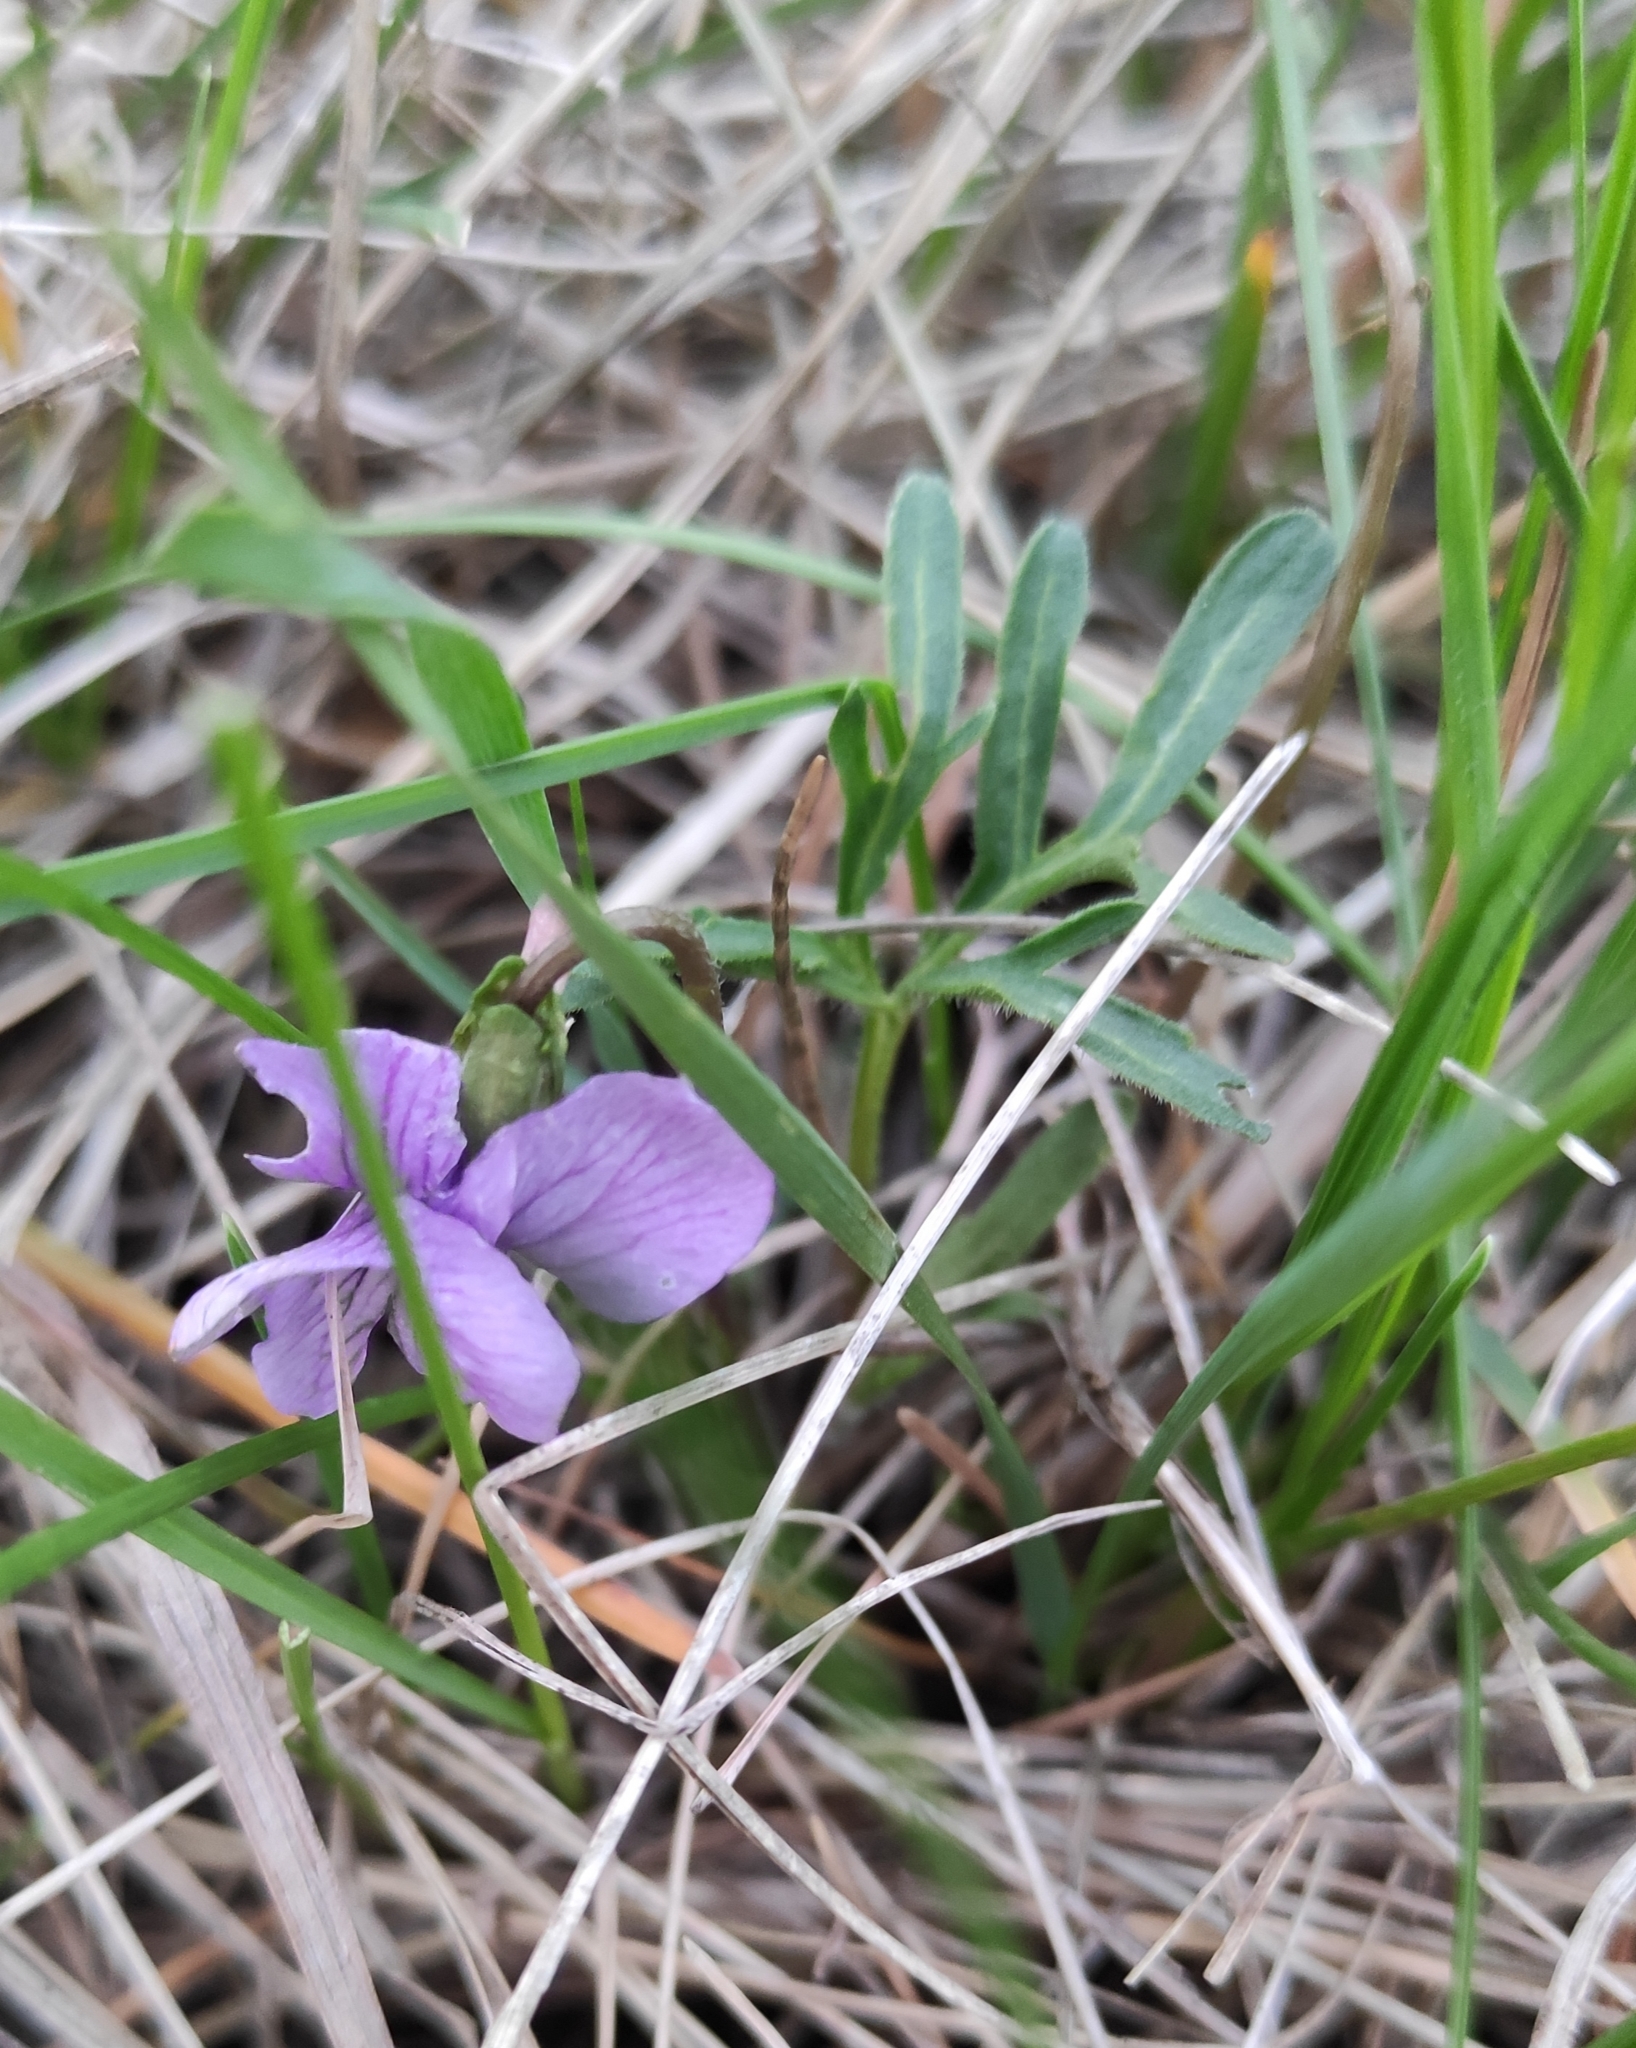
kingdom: Plantae
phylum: Tracheophyta
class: Magnoliopsida
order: Malpighiales
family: Violaceae
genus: Viola
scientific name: Viola multifida
